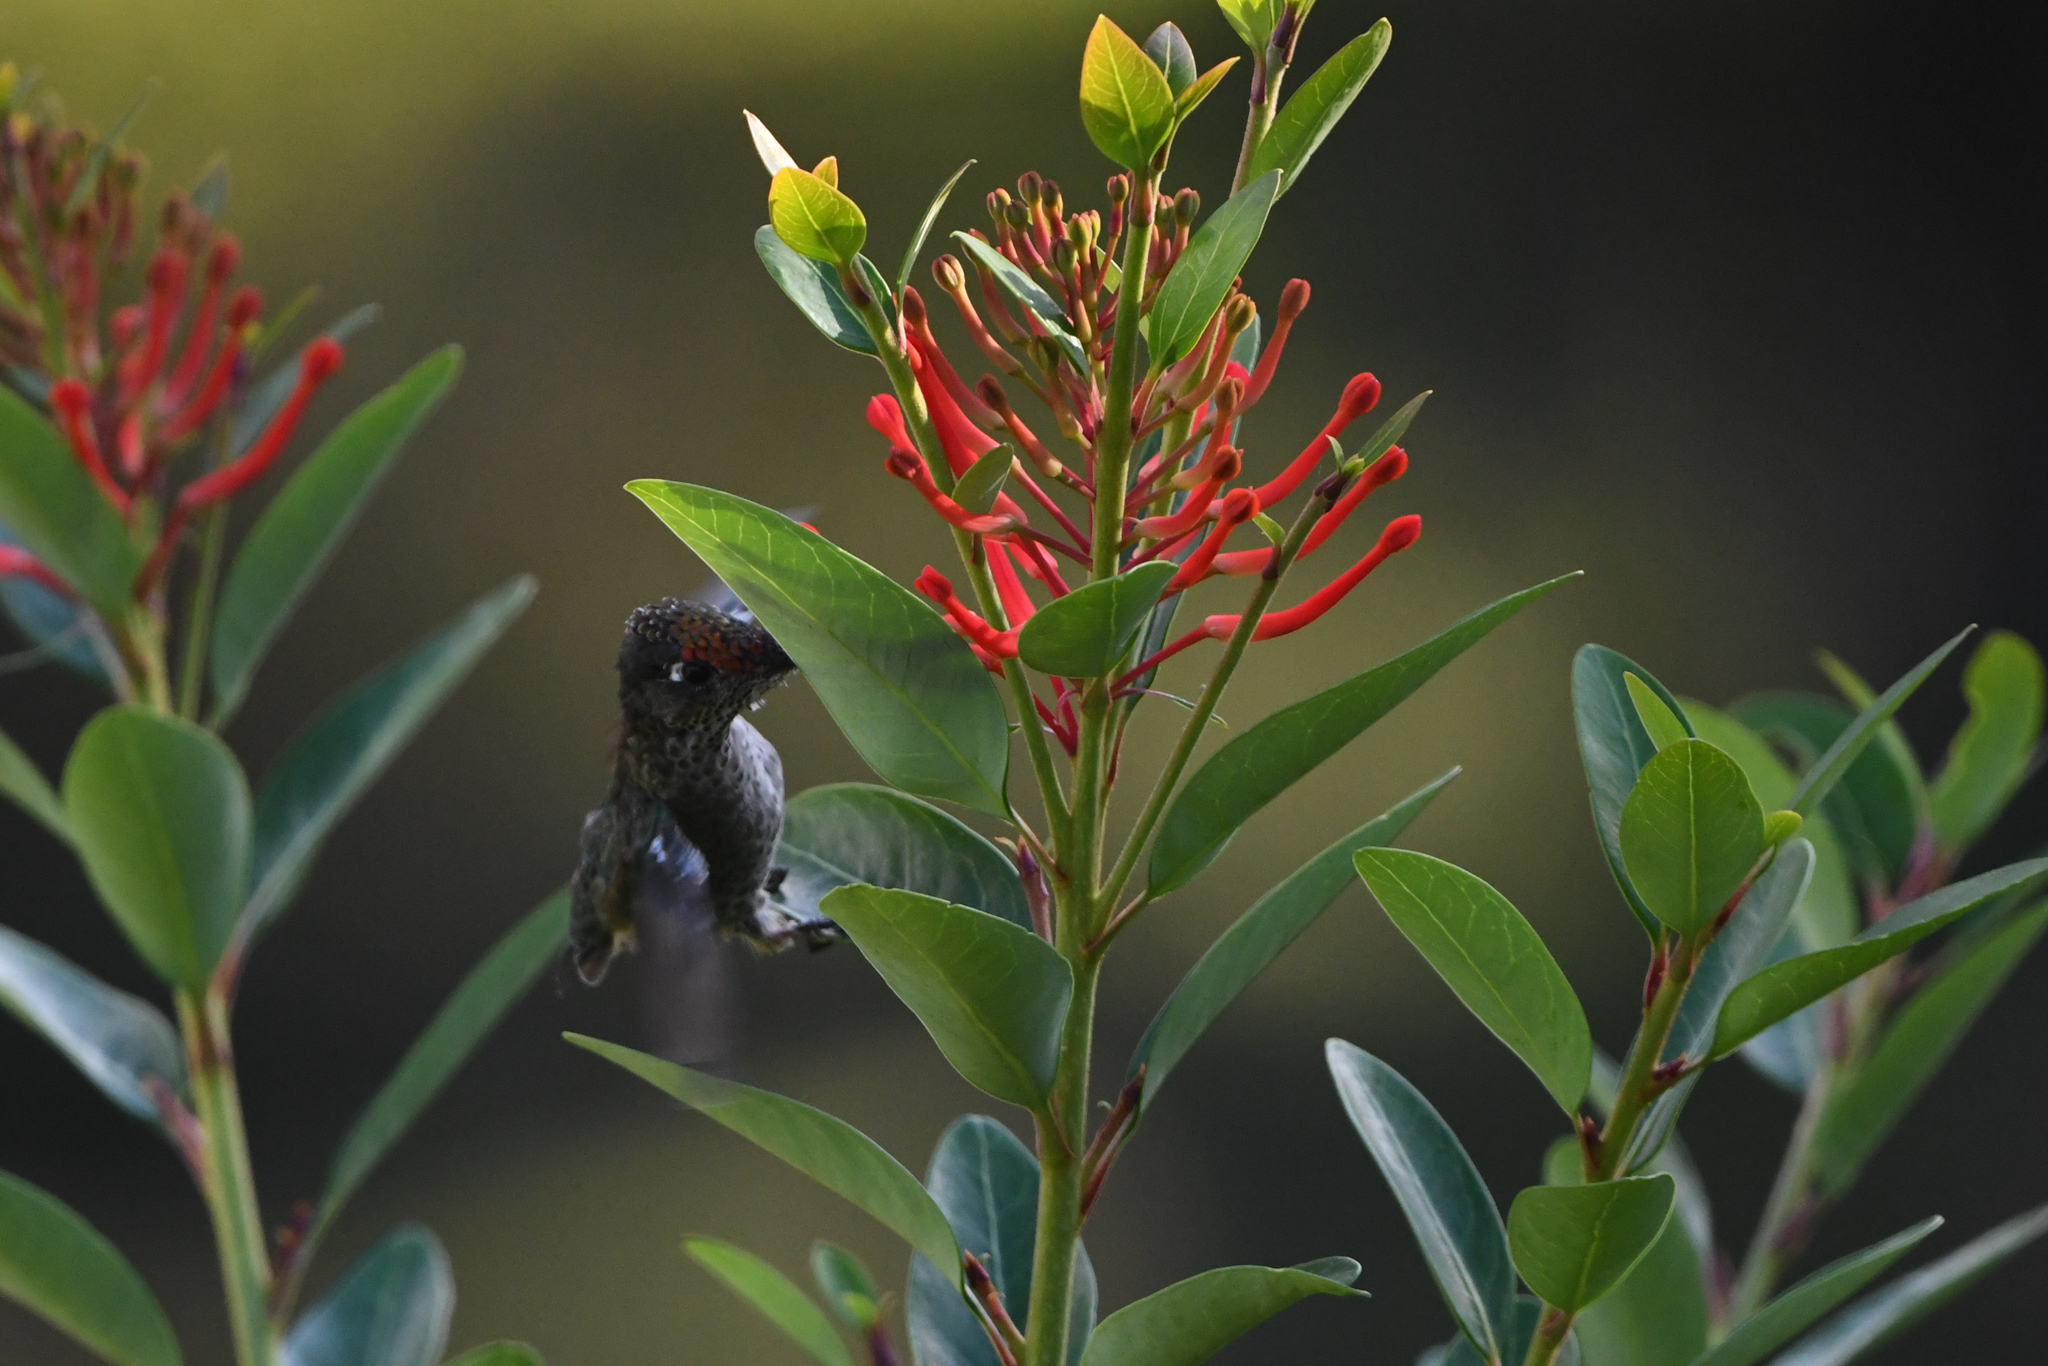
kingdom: Animalia
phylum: Chordata
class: Aves
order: Apodiformes
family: Trochilidae
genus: Sephanoides
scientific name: Sephanoides sephaniodes
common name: Green-backed firecrown
